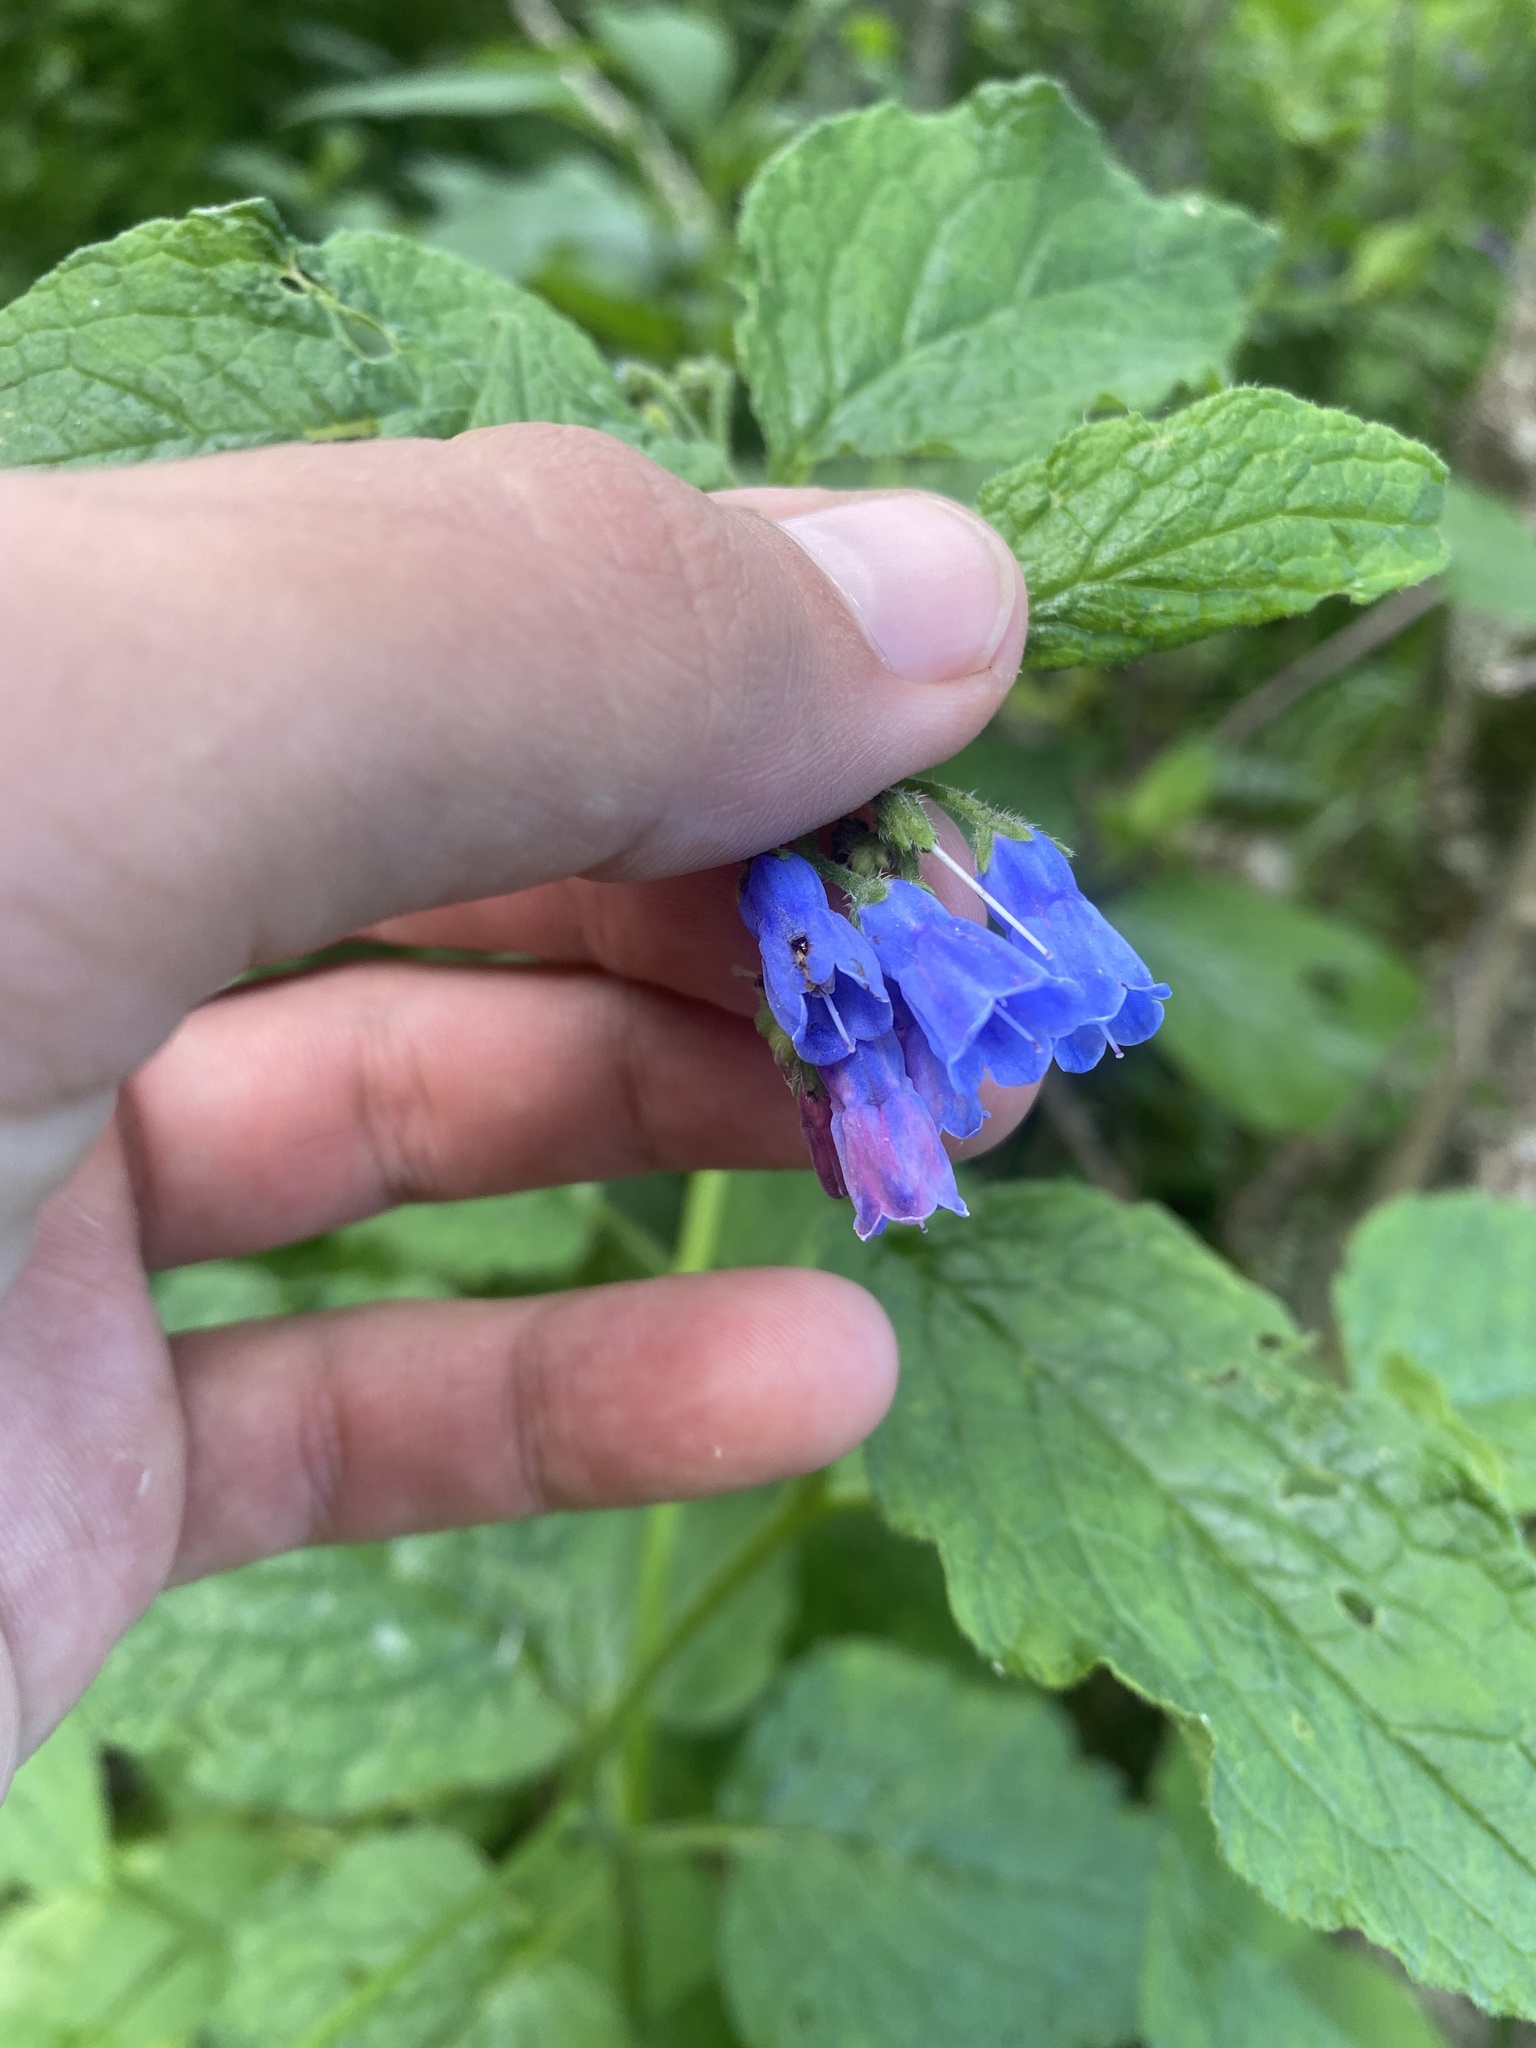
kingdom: Plantae
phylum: Tracheophyta
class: Magnoliopsida
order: Boraginales
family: Boraginaceae
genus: Symphytum
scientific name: Symphytum asperum
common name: Prickly comfrey
